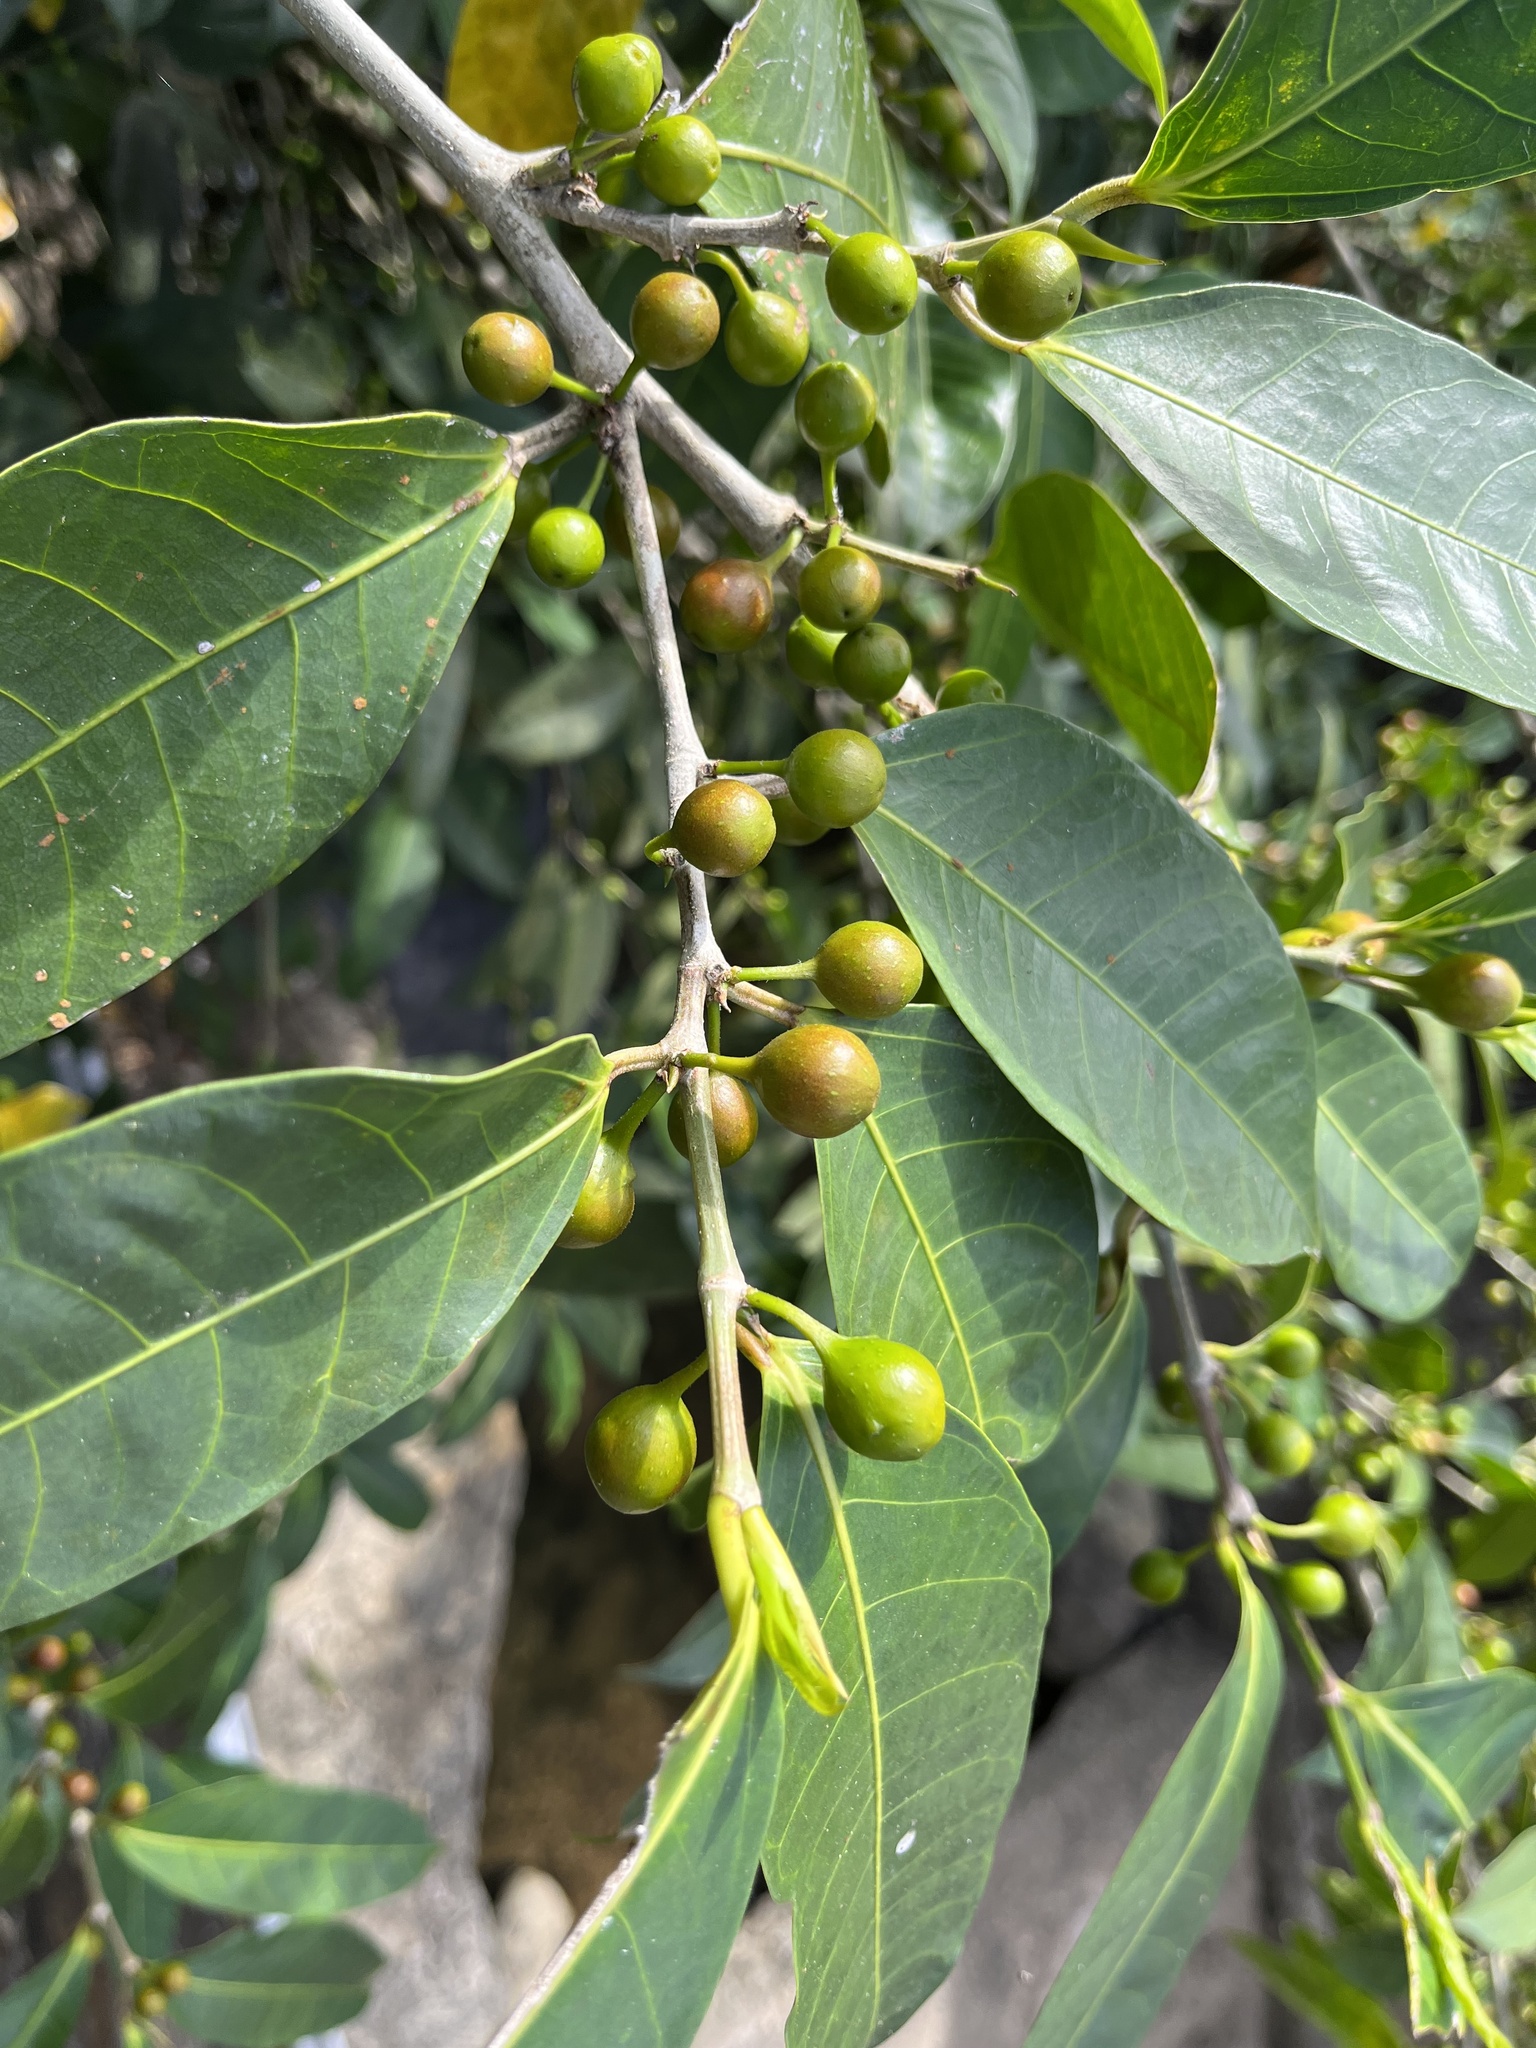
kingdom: Plantae
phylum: Tracheophyta
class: Magnoliopsida
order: Rosales
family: Moraceae
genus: Ficus
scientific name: Ficus virgata
